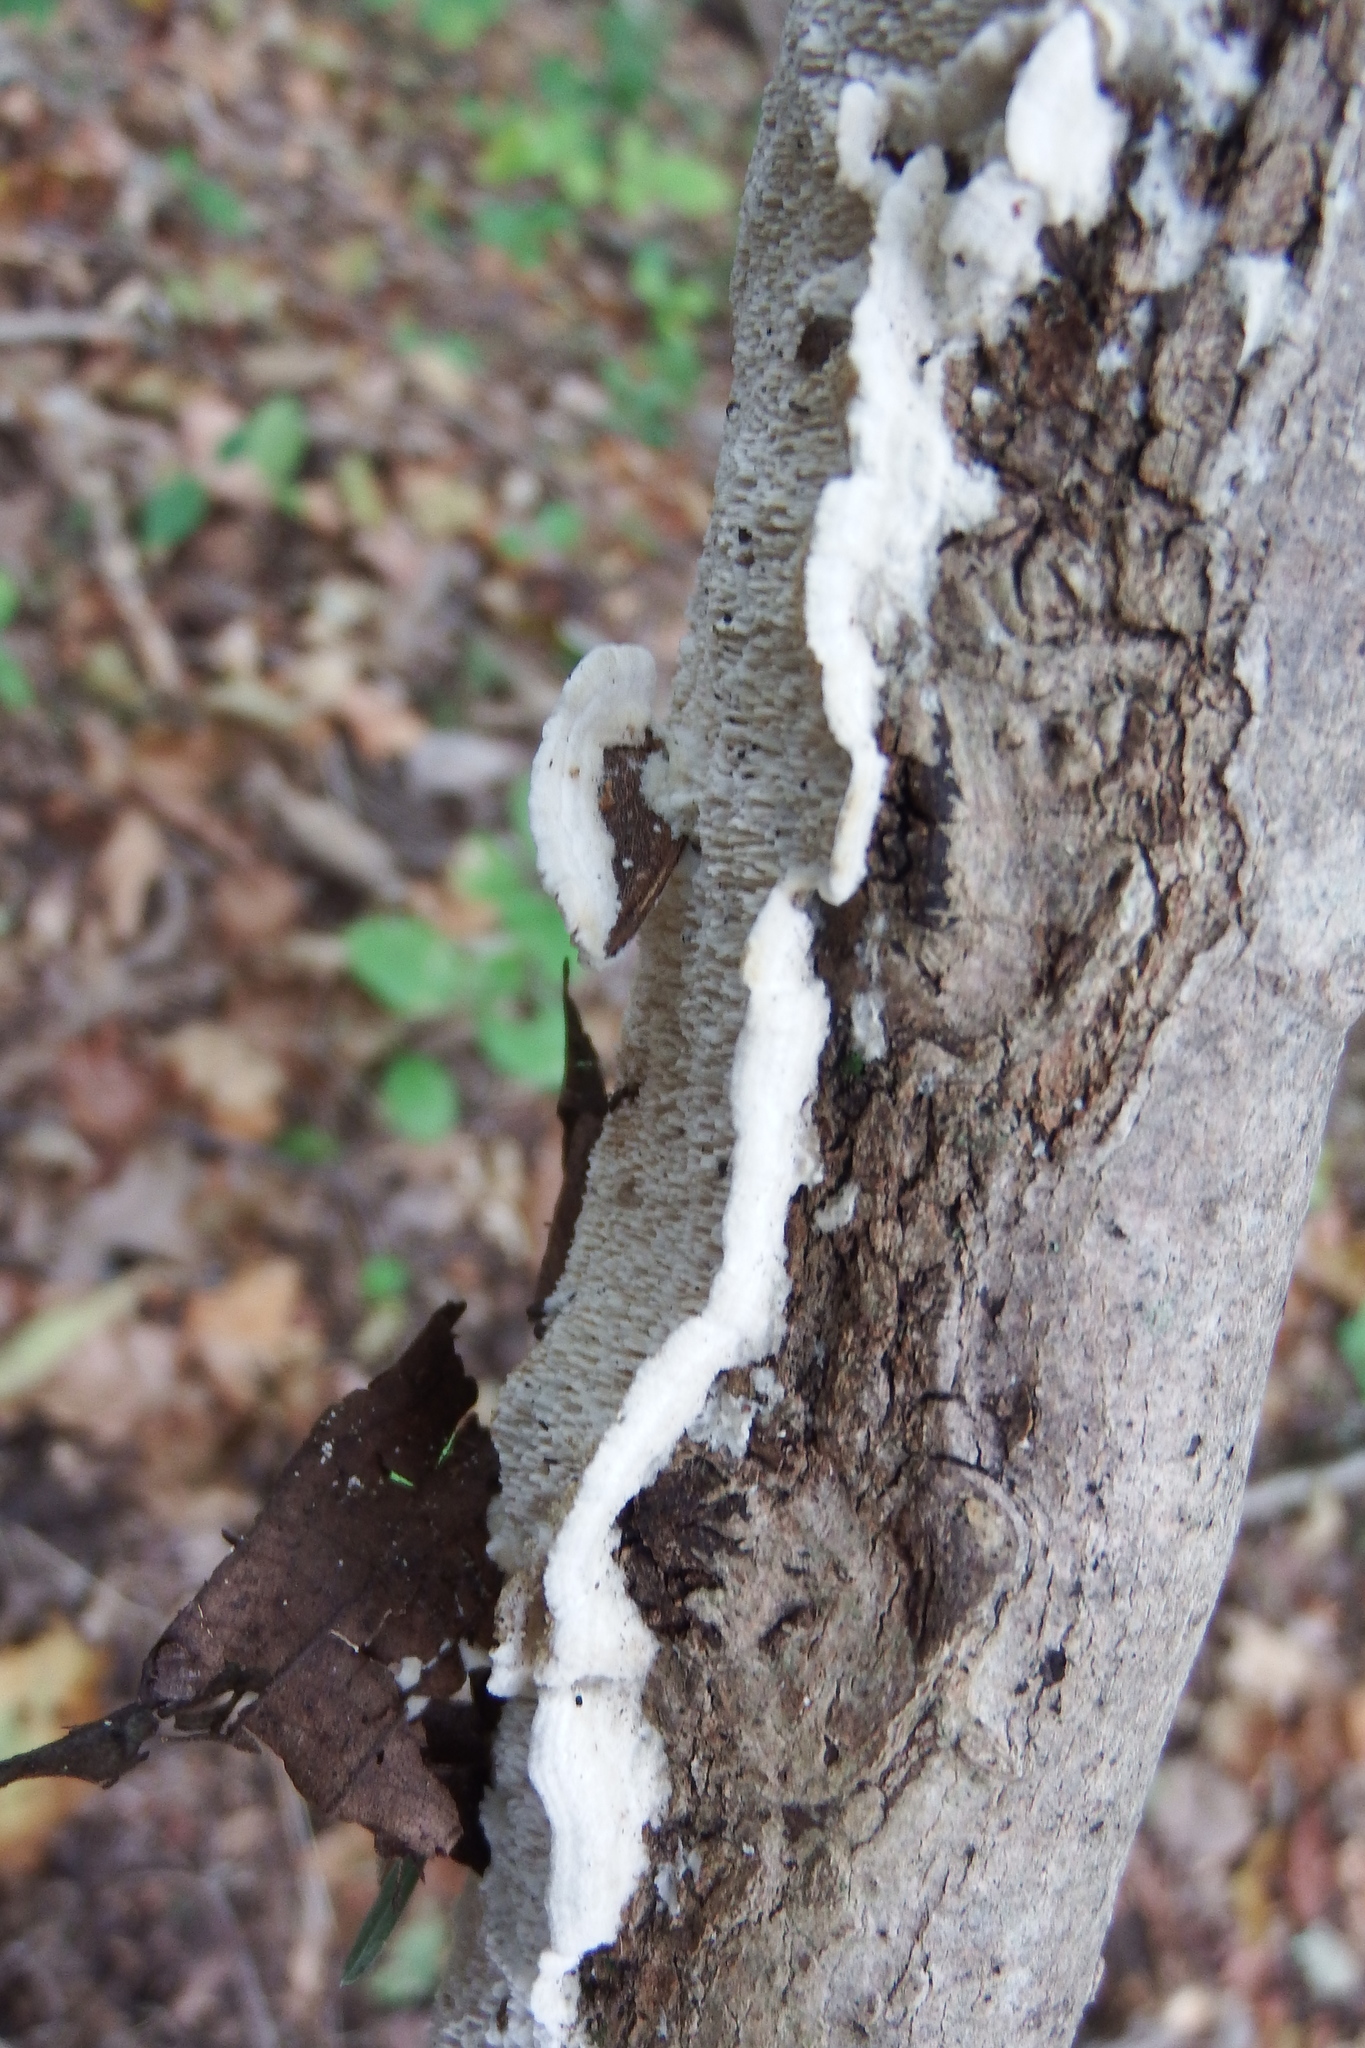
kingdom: Fungi
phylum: Basidiomycota
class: Agaricomycetes
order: Polyporales
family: Irpicaceae
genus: Irpex
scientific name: Irpex lacteus
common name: Milk-white toothed polypore
